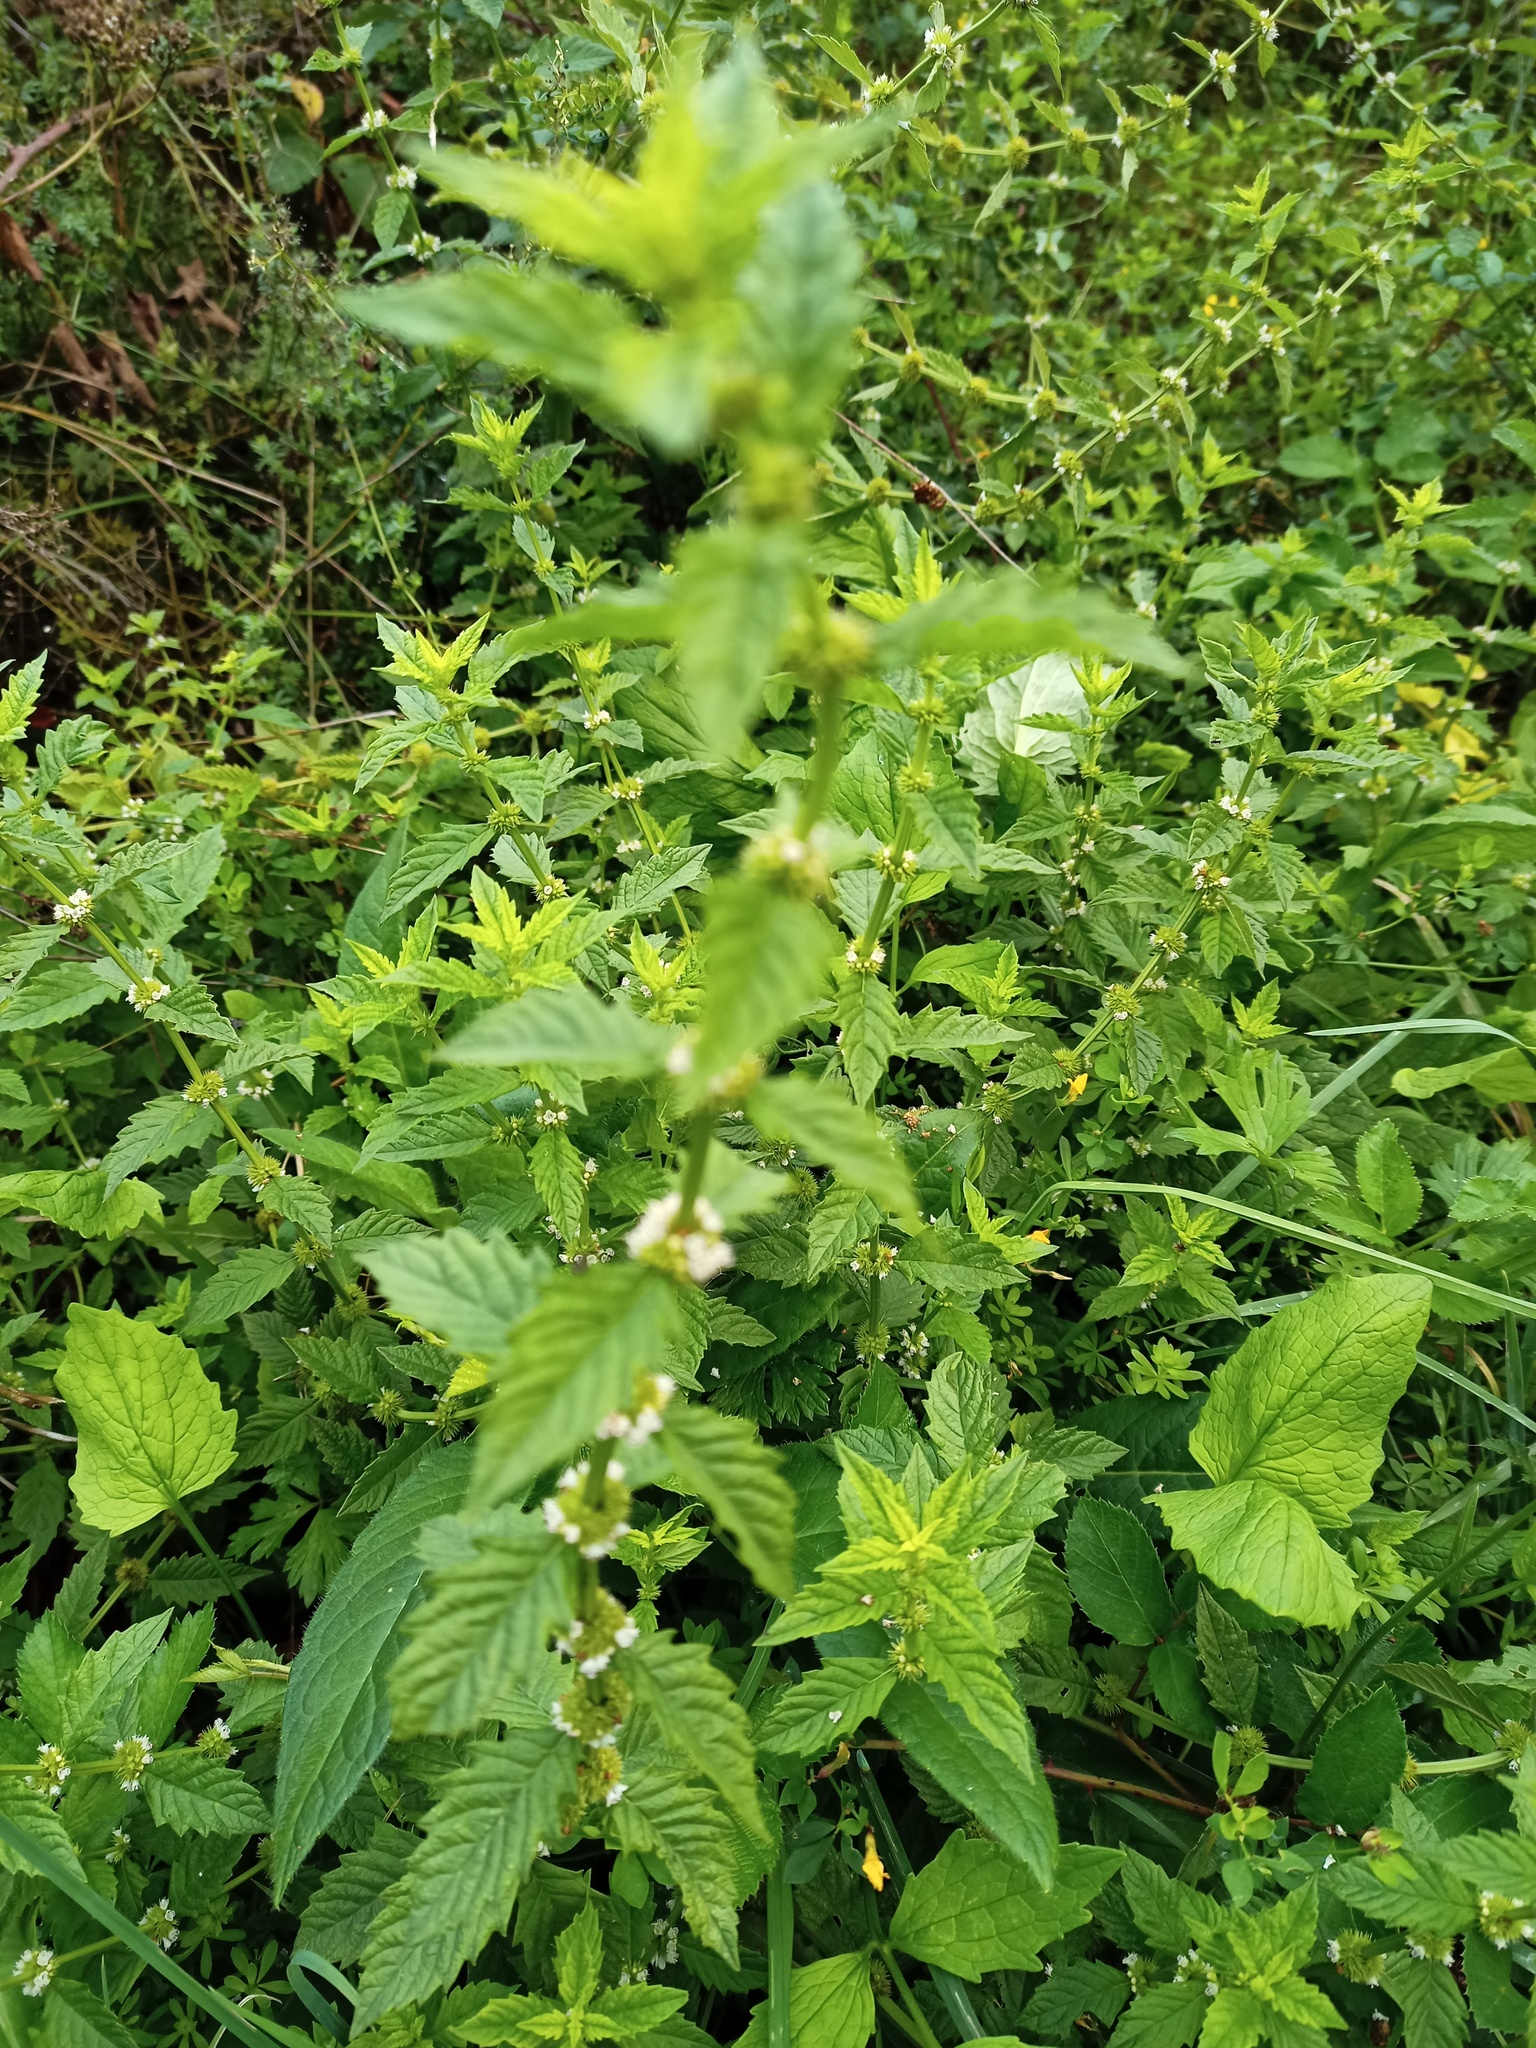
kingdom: Plantae
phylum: Tracheophyta
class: Magnoliopsida
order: Lamiales
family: Lamiaceae
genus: Lycopus
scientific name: Lycopus europaeus
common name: European bugleweed
